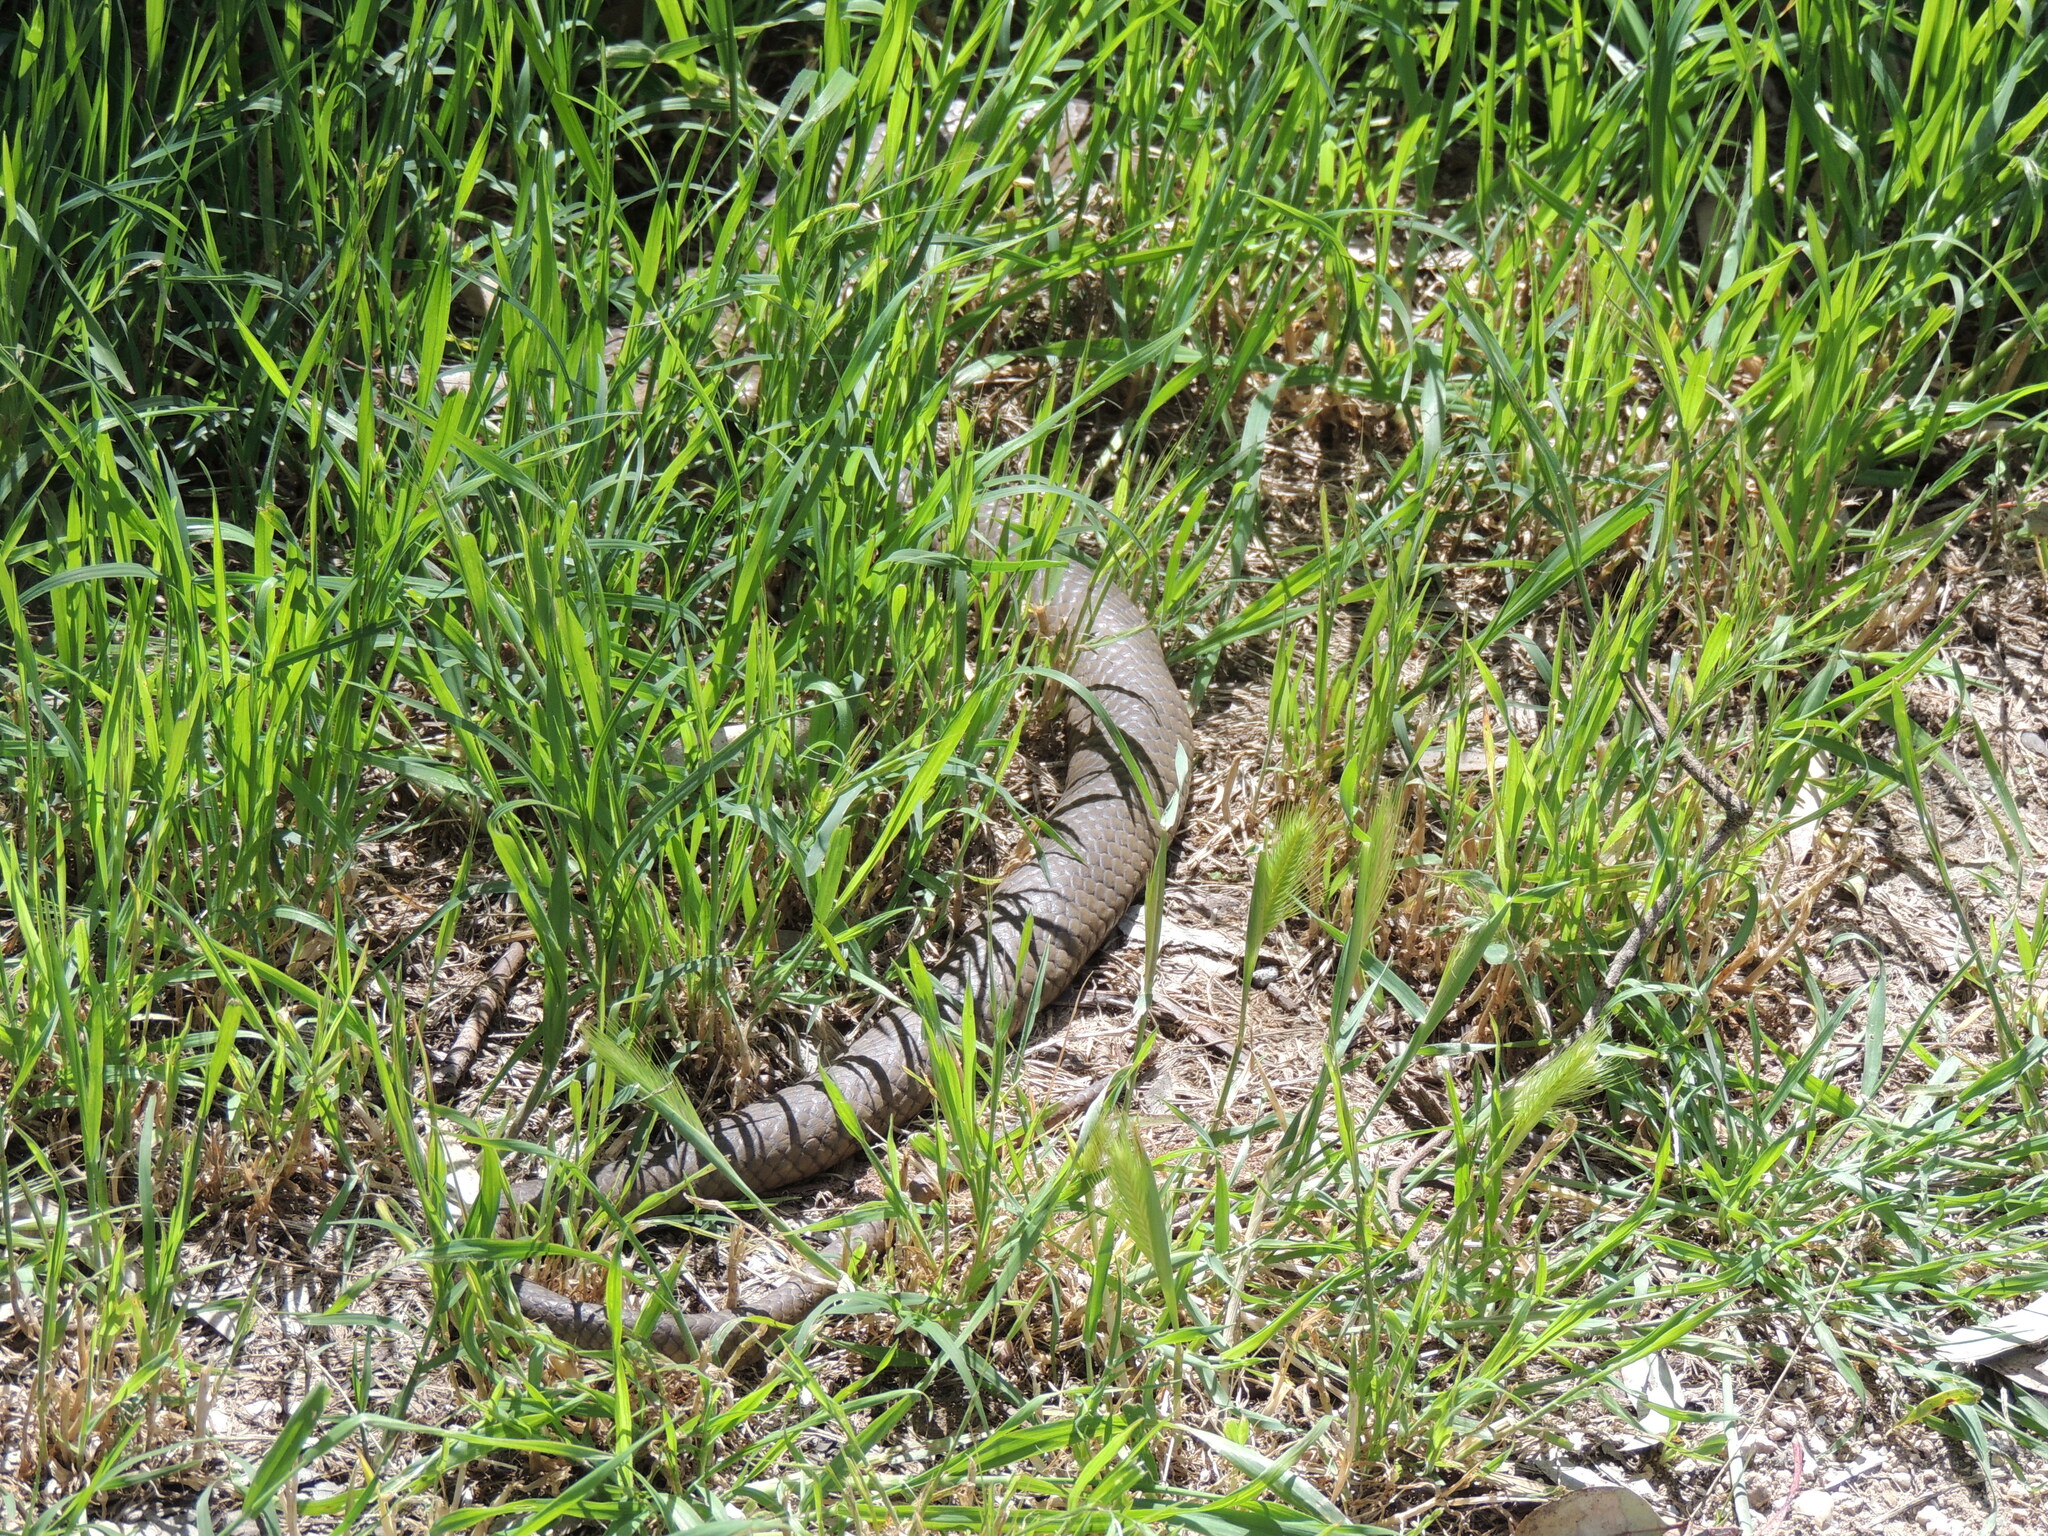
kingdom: Animalia
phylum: Chordata
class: Squamata
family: Elapidae
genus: Pseudonaja
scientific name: Pseudonaja textilis
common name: Eastern brown snake
